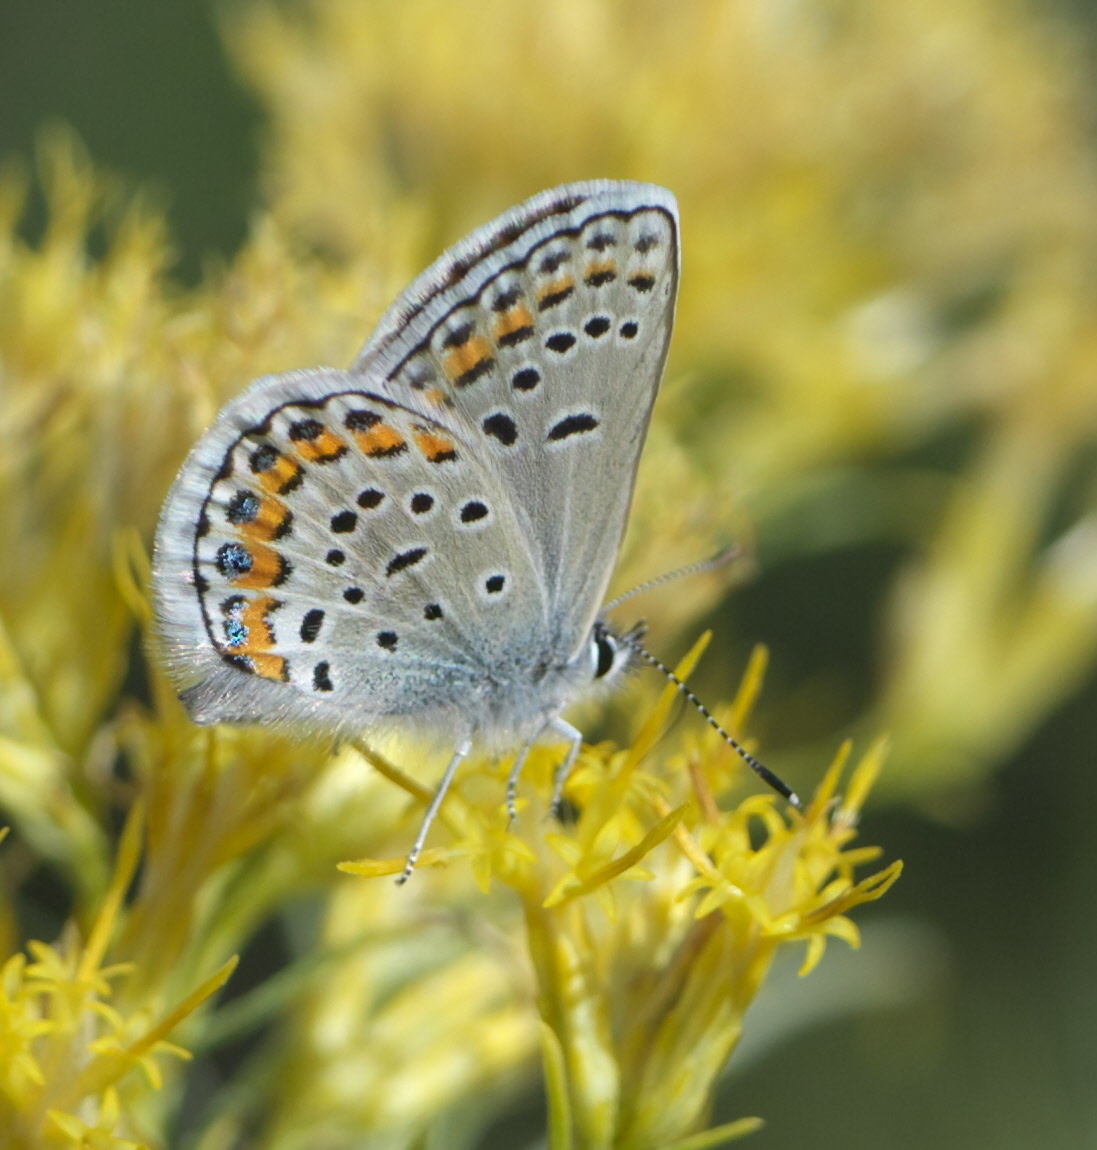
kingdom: Animalia
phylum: Arthropoda
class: Insecta
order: Lepidoptera
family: Lycaenidae
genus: Lycaeides
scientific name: Lycaeides melissa
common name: Melissa blue
